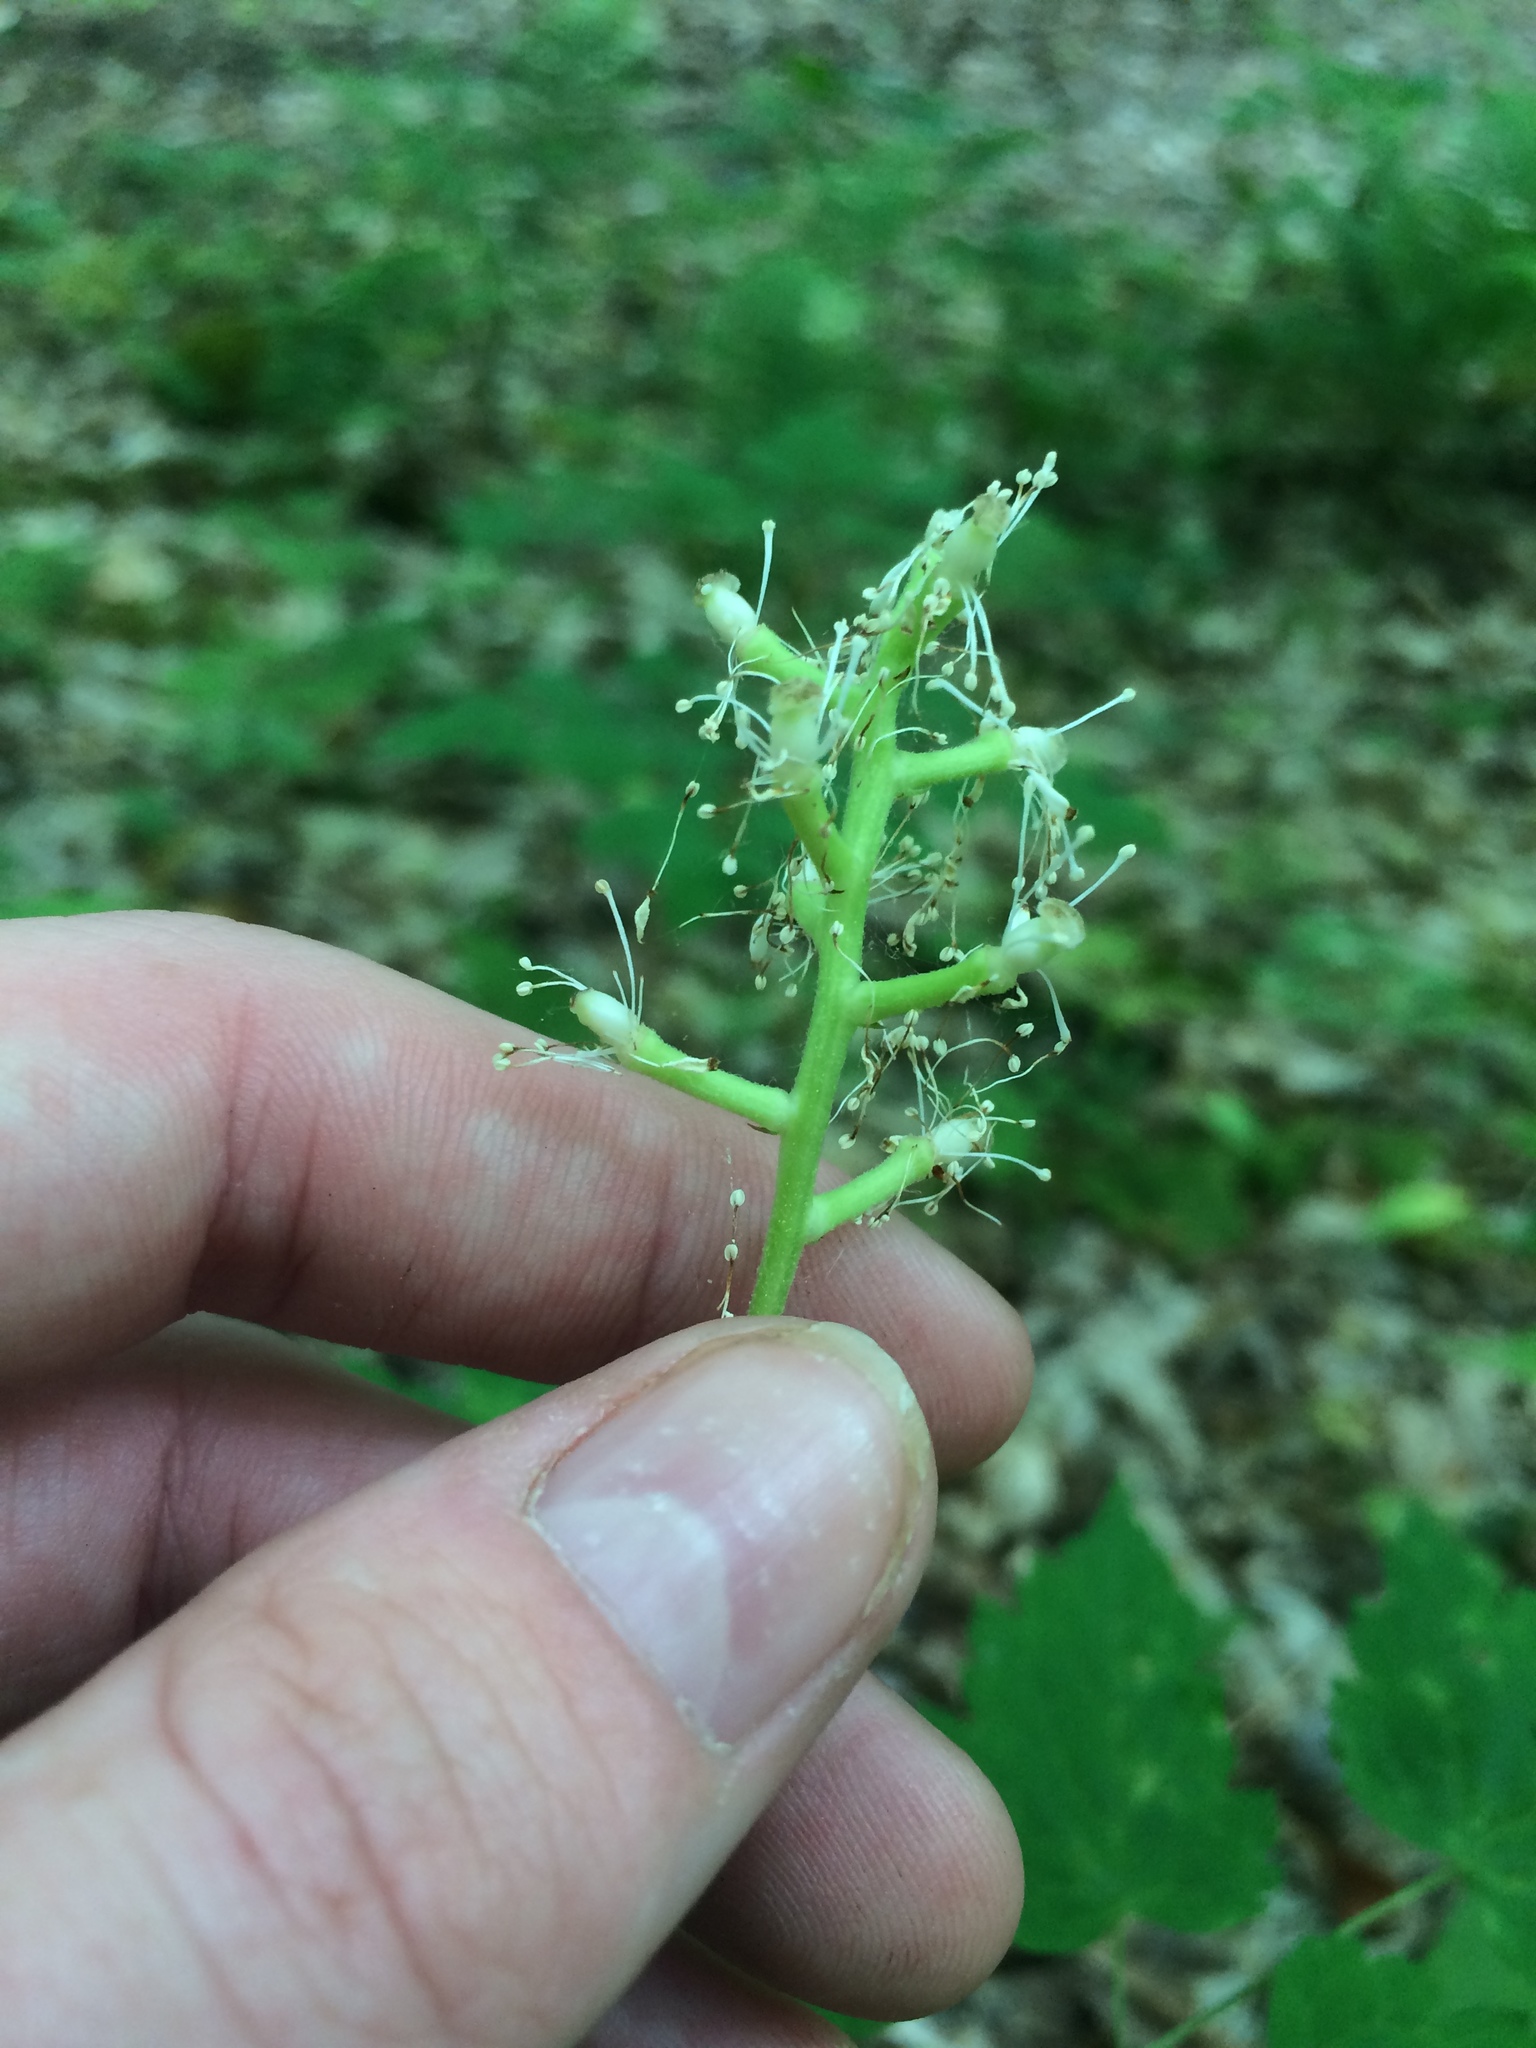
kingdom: Plantae
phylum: Tracheophyta
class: Magnoliopsida
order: Ranunculales
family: Ranunculaceae
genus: Actaea
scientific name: Actaea pachypoda
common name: Doll's-eyes
